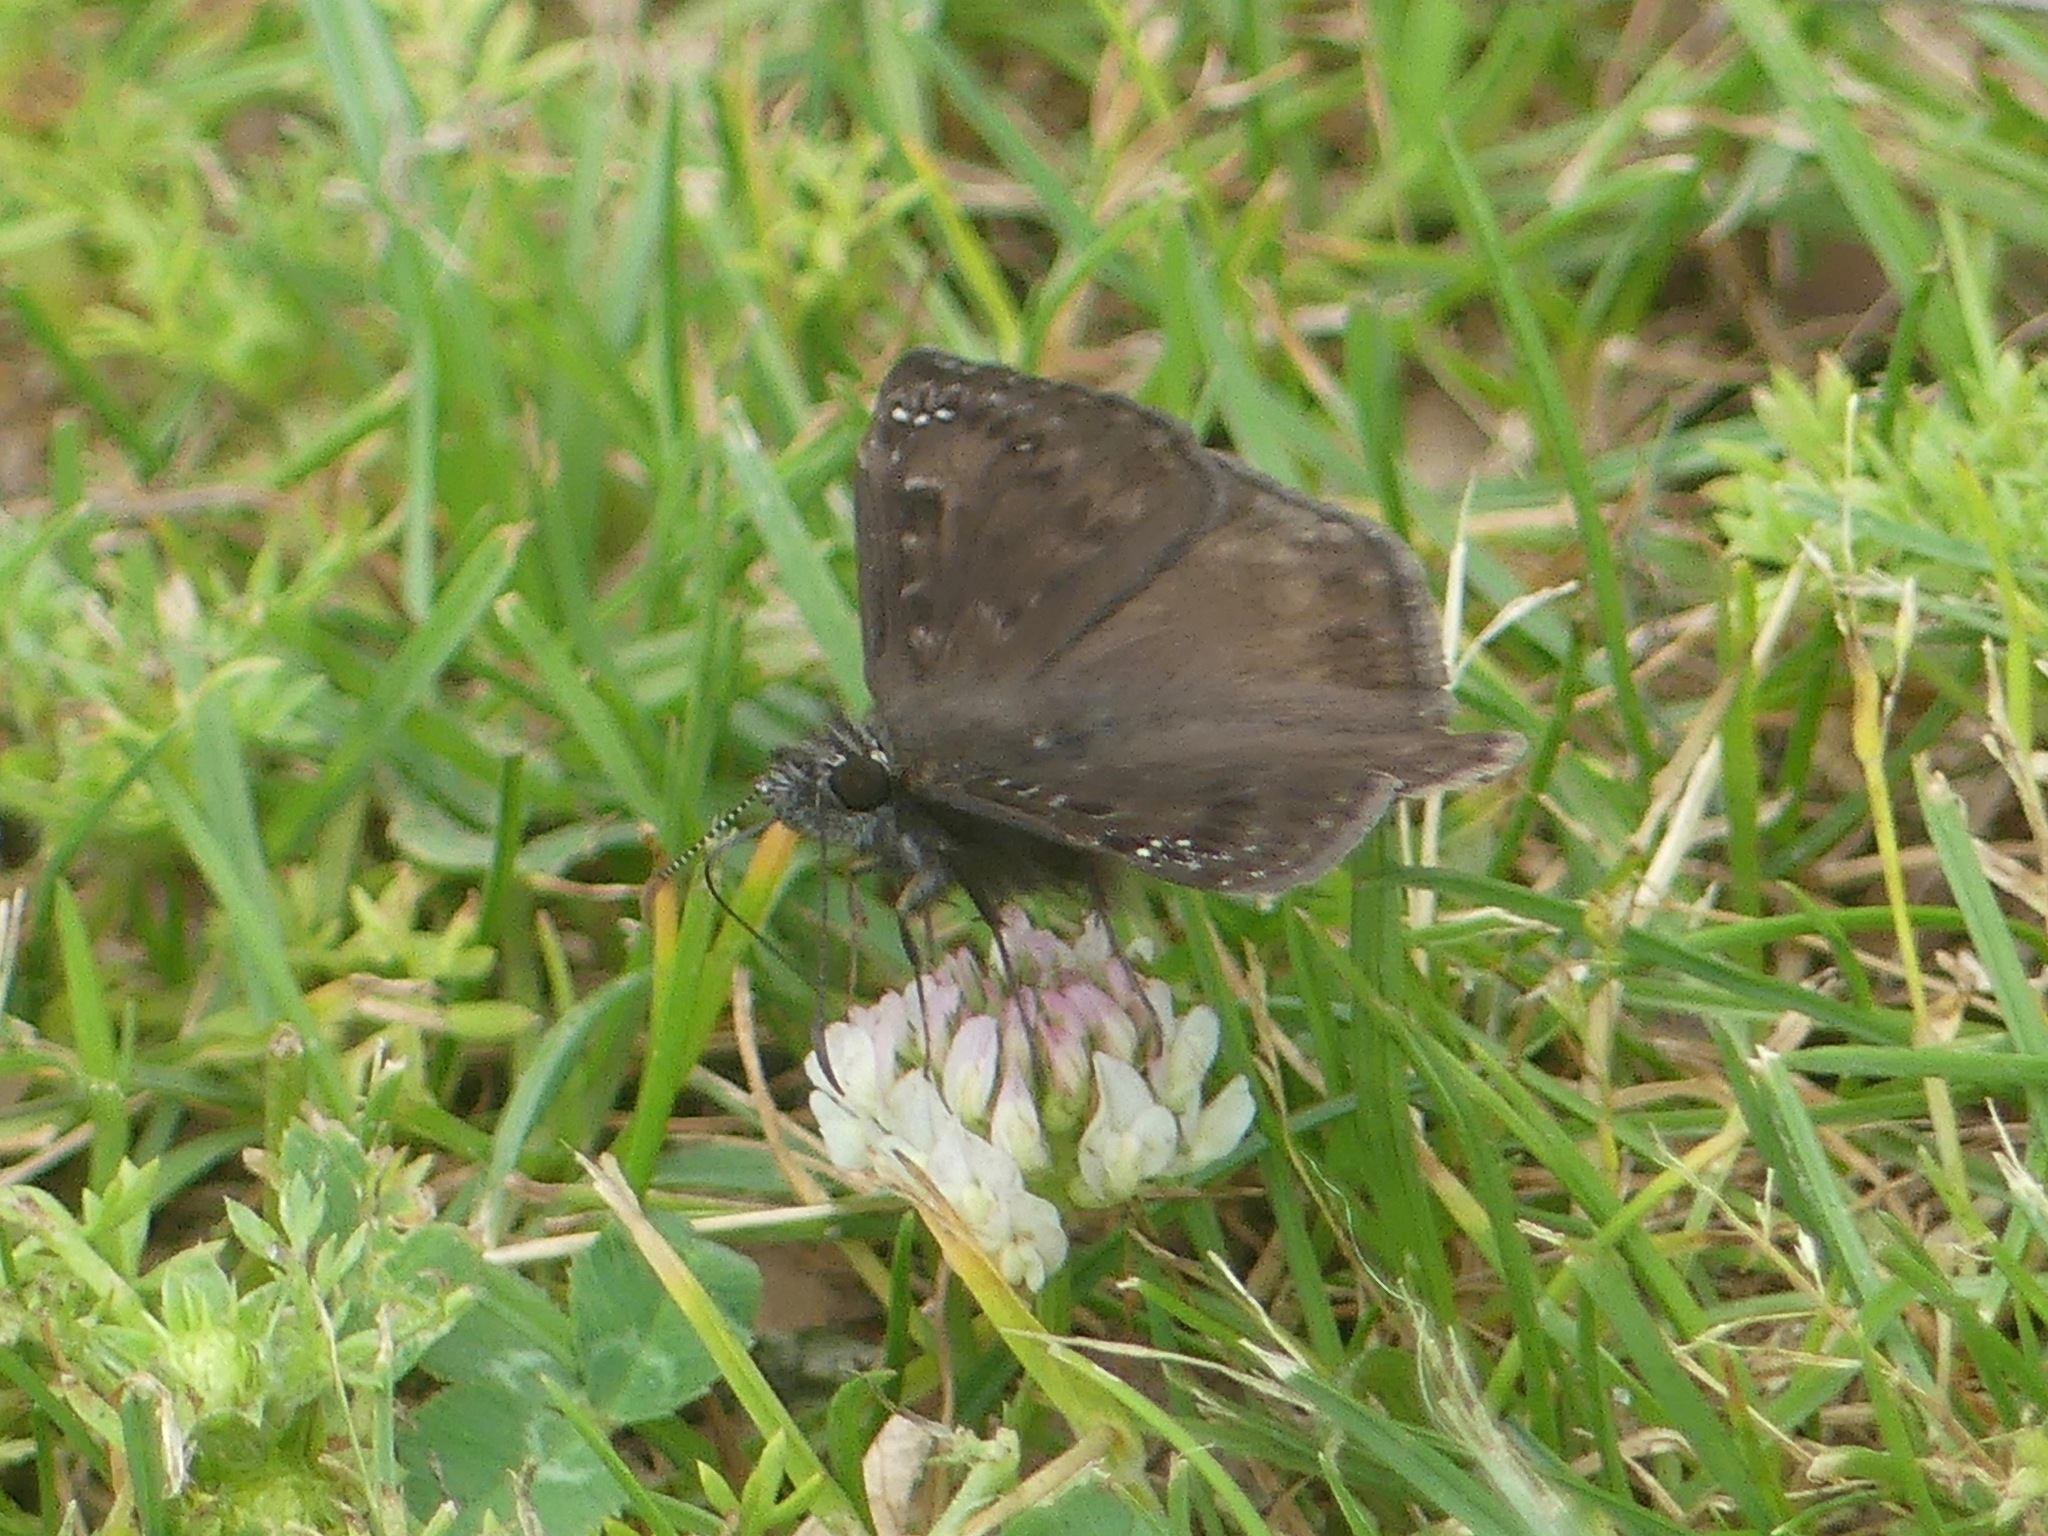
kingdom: Animalia
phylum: Arthropoda
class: Insecta
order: Lepidoptera
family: Hesperiidae
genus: Erynnis
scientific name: Erynnis horatius
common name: Horace's duskywing
